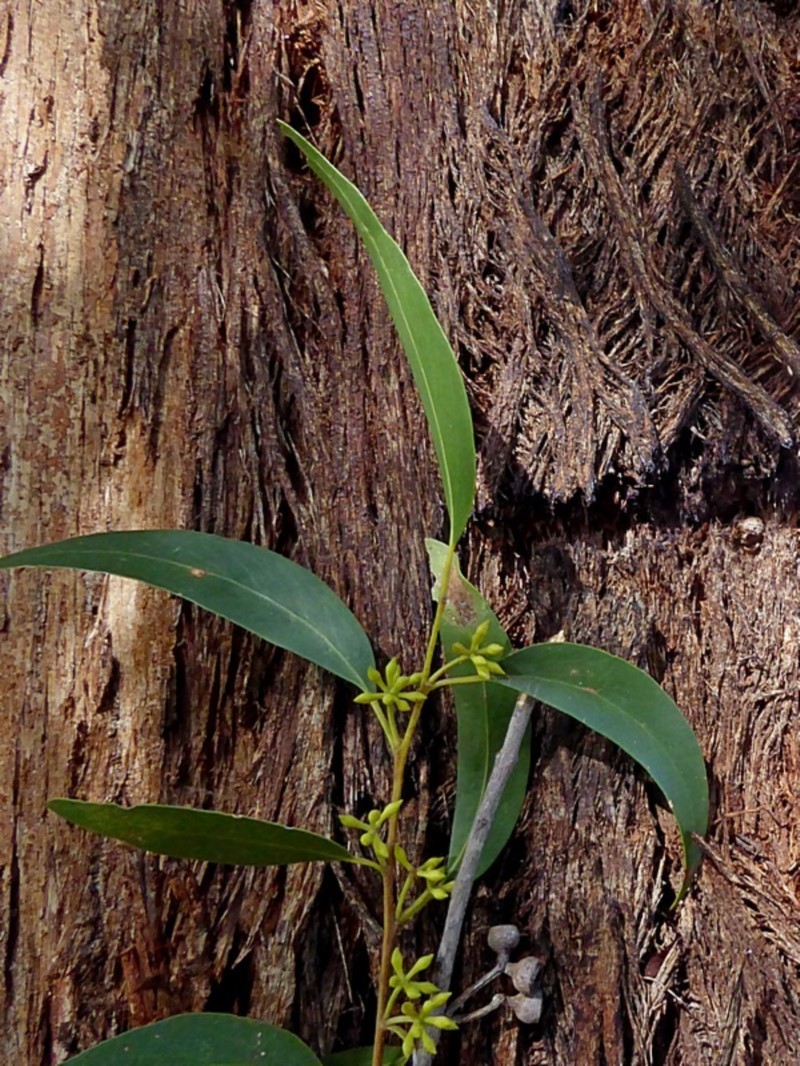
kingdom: Plantae
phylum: Tracheophyta
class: Magnoliopsida
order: Myrtales
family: Myrtaceae
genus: Eucalyptus
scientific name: Eucalyptus eugenioides
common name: Narrow-leaved-stringybark
